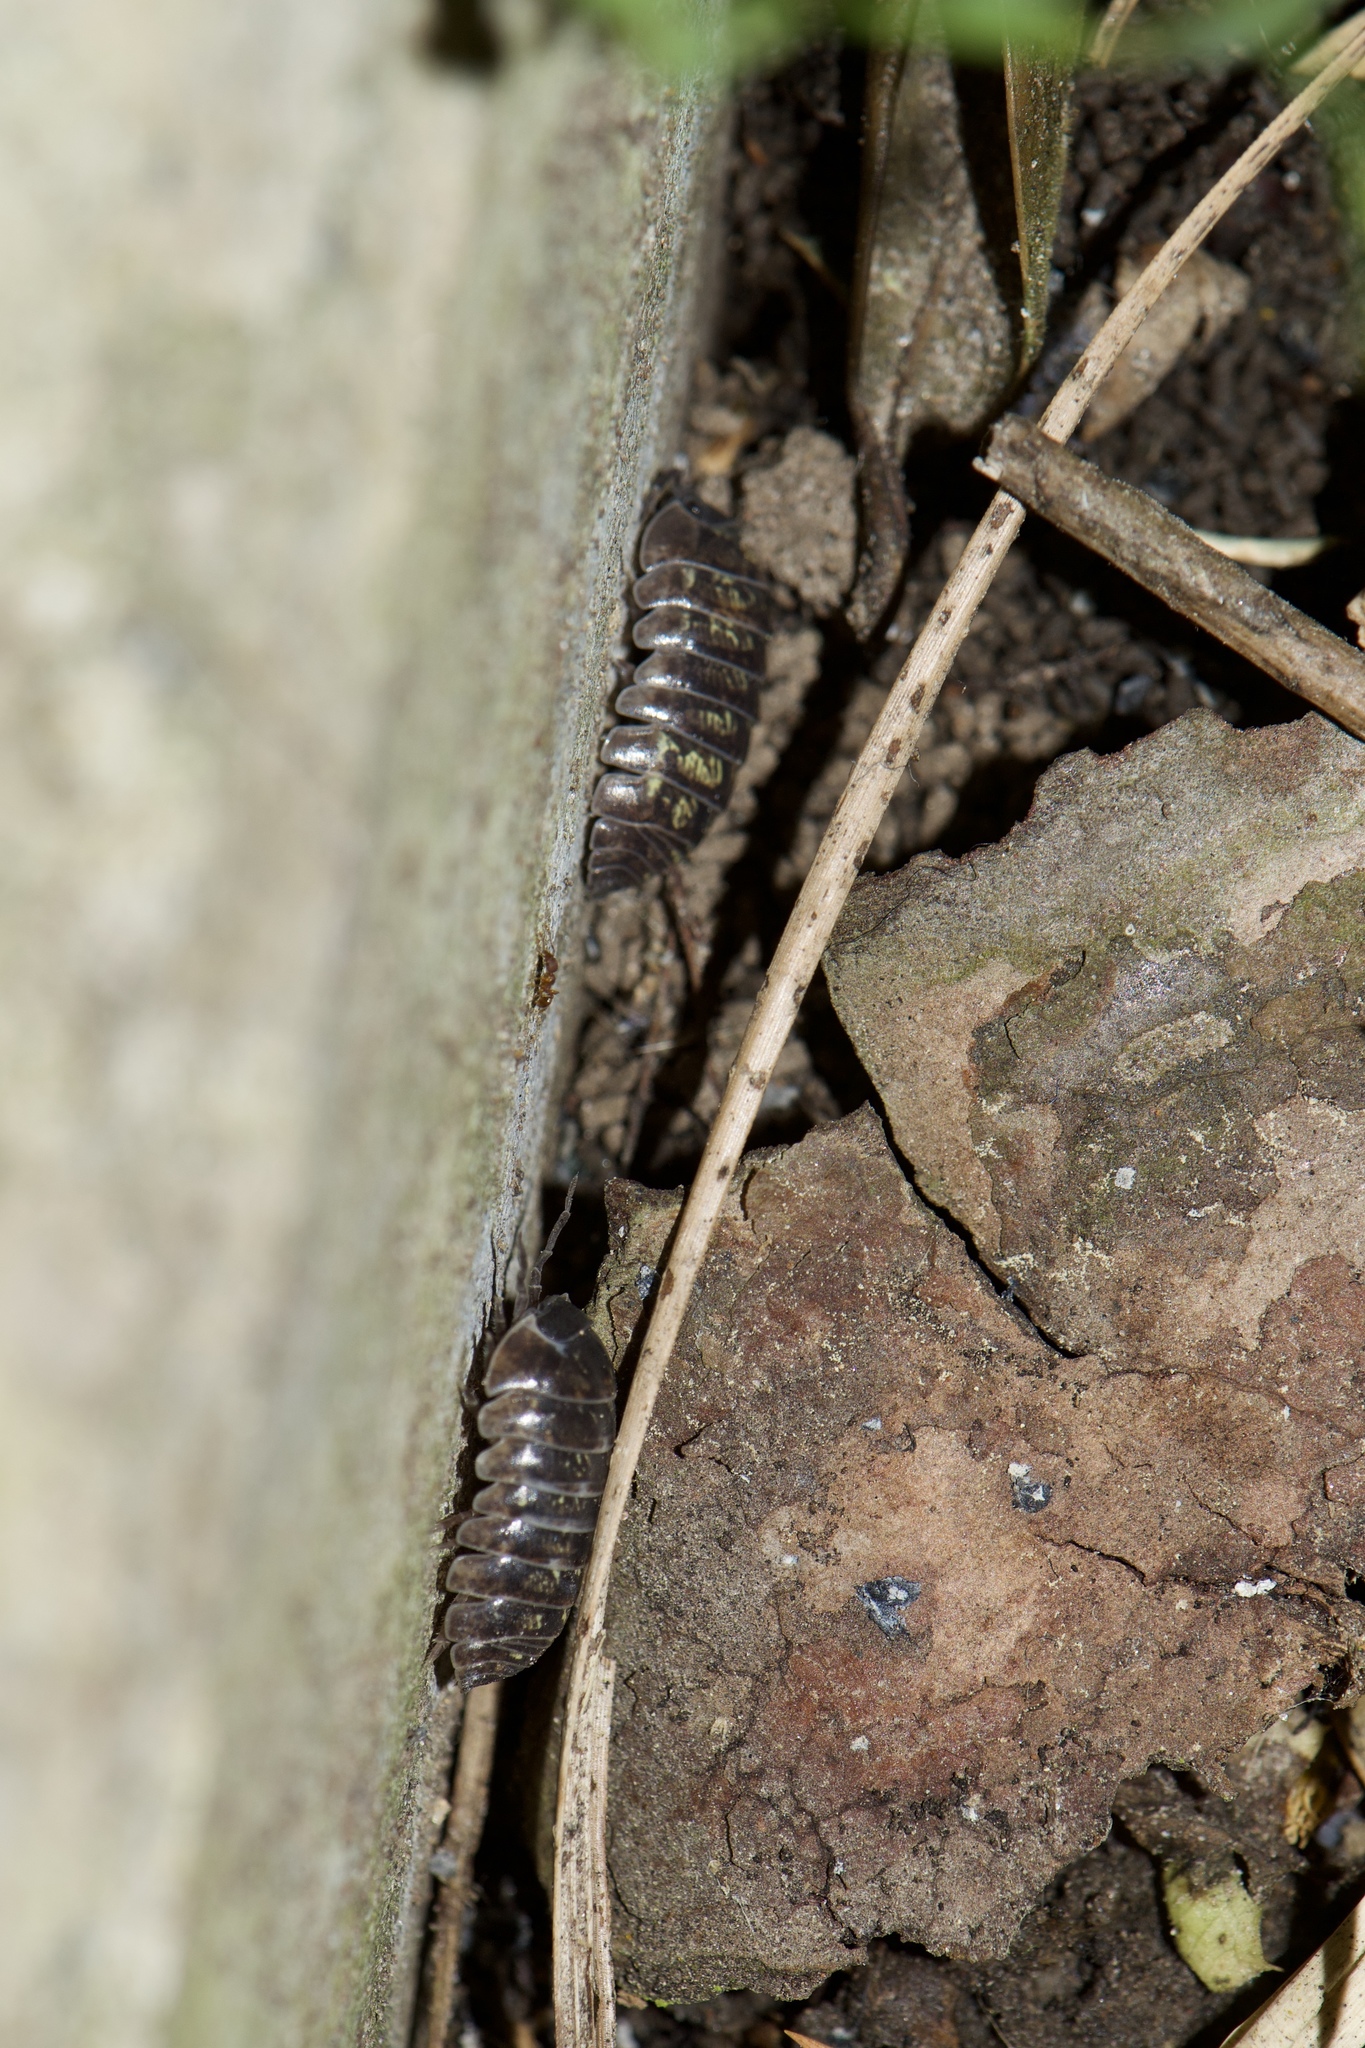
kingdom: Animalia
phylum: Arthropoda
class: Malacostraca
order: Isopoda
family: Armadillidiidae
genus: Armadillidium
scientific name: Armadillidium vulgare
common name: Common pill woodlouse
